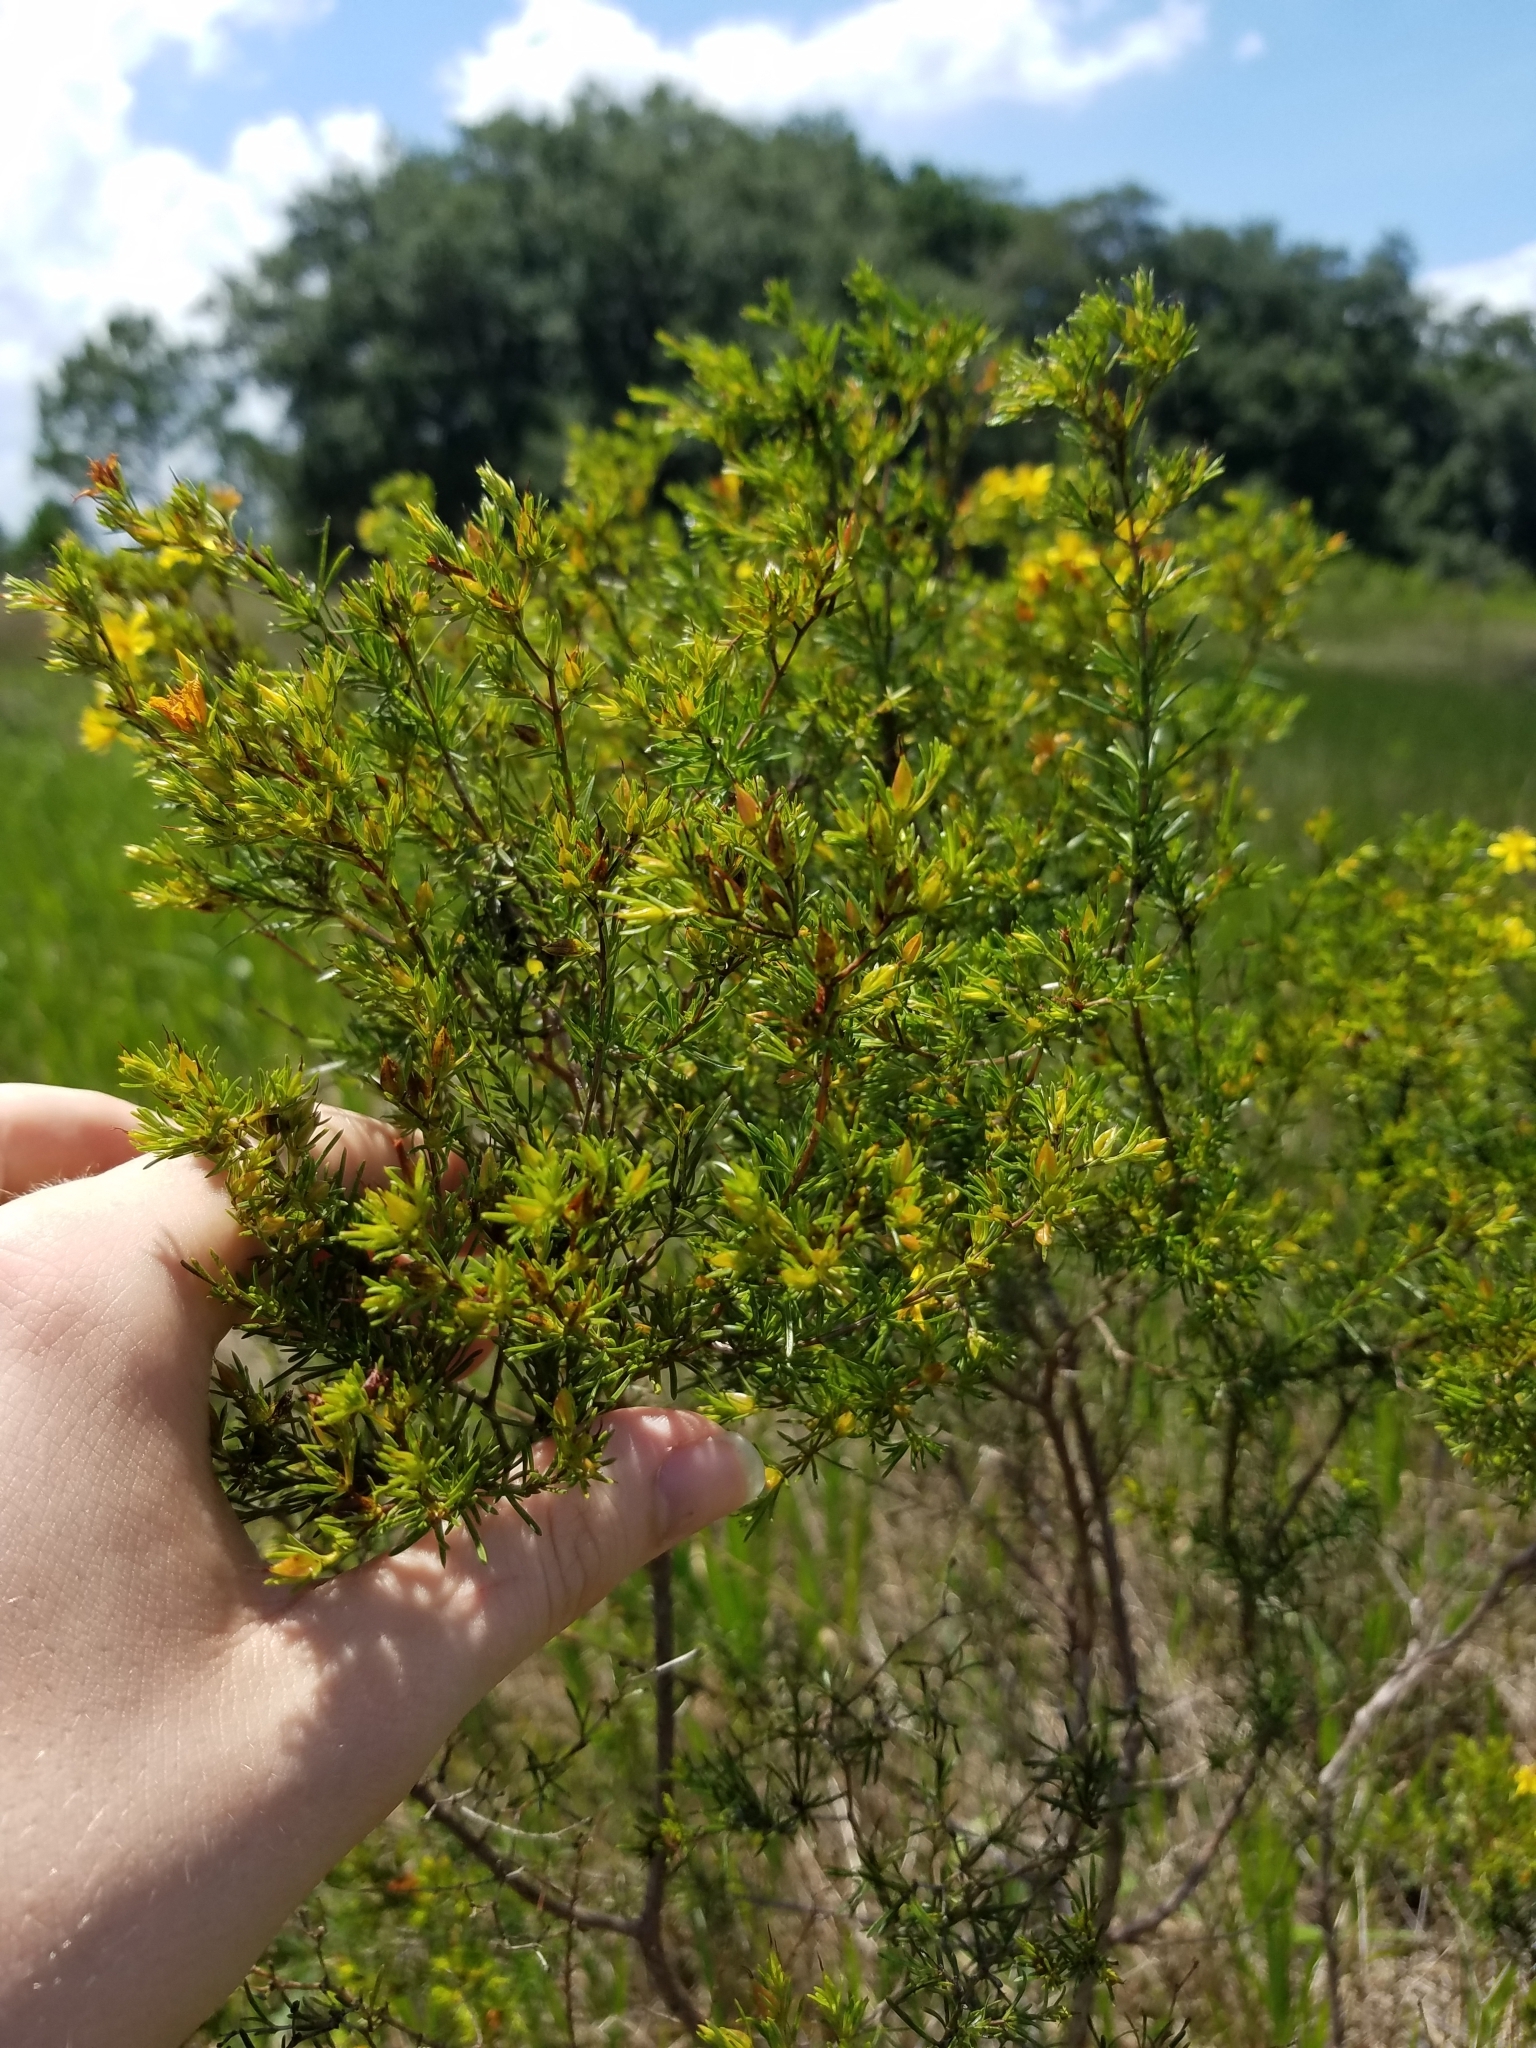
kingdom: Plantae
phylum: Tracheophyta
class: Magnoliopsida
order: Malpighiales
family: Hypericaceae
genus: Hypericum
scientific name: Hypericum fasciculatum
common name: Peelbark st. john's wort
